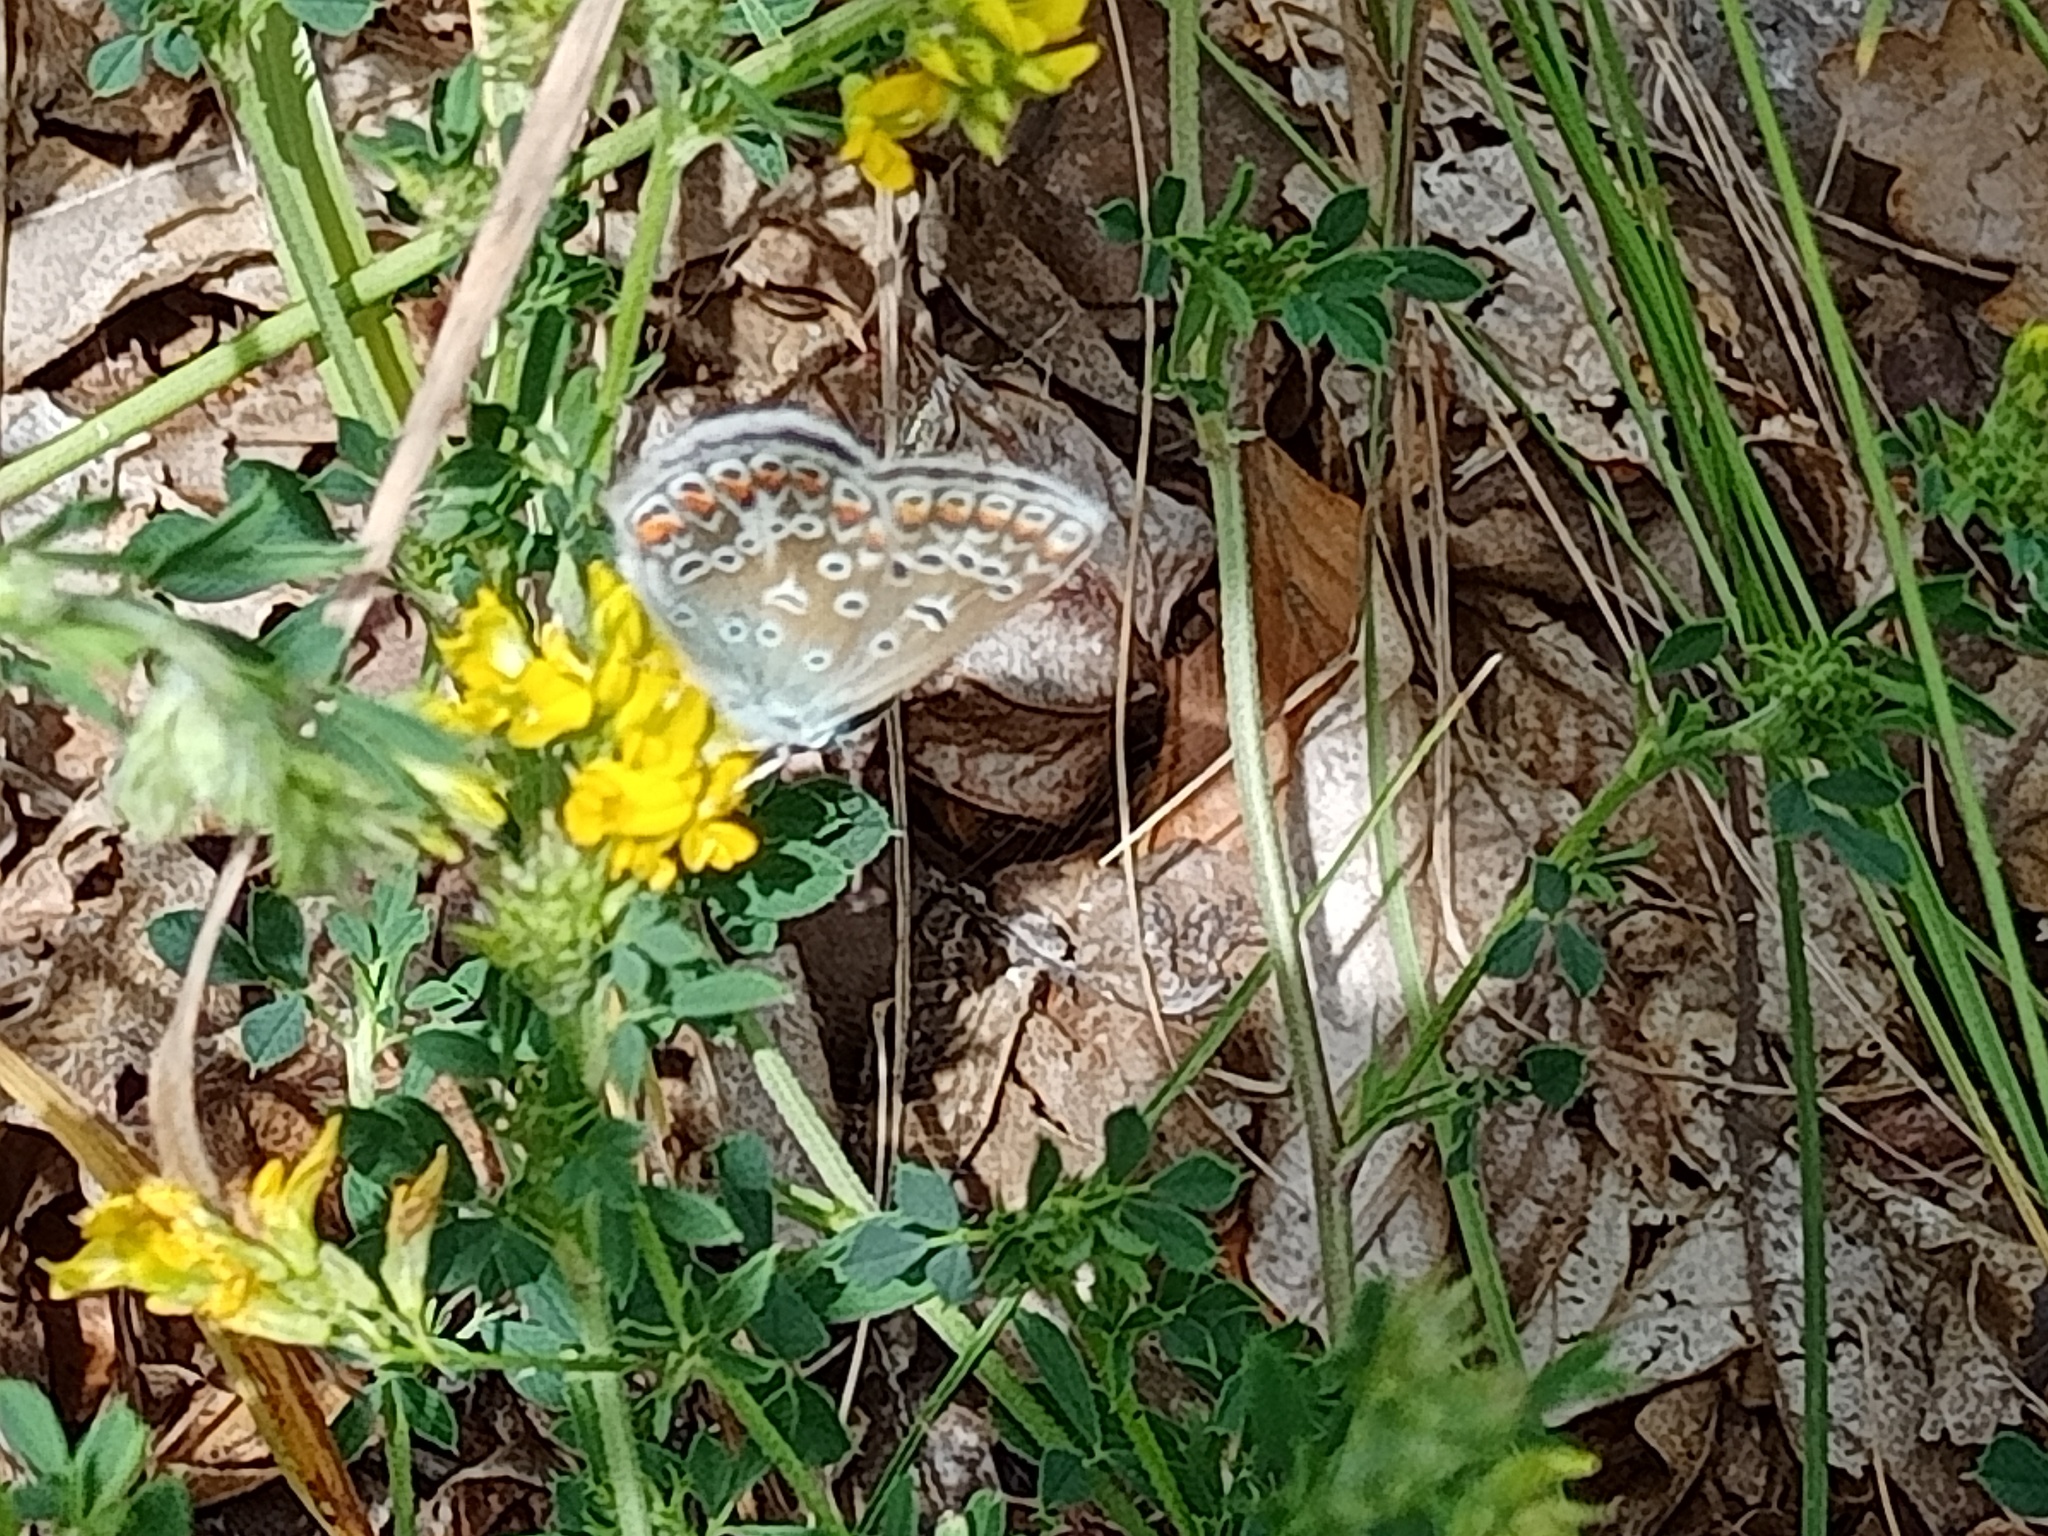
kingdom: Animalia
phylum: Arthropoda
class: Insecta
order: Lepidoptera
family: Lycaenidae
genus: Polyommatus
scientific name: Polyommatus icarus
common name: Common blue
